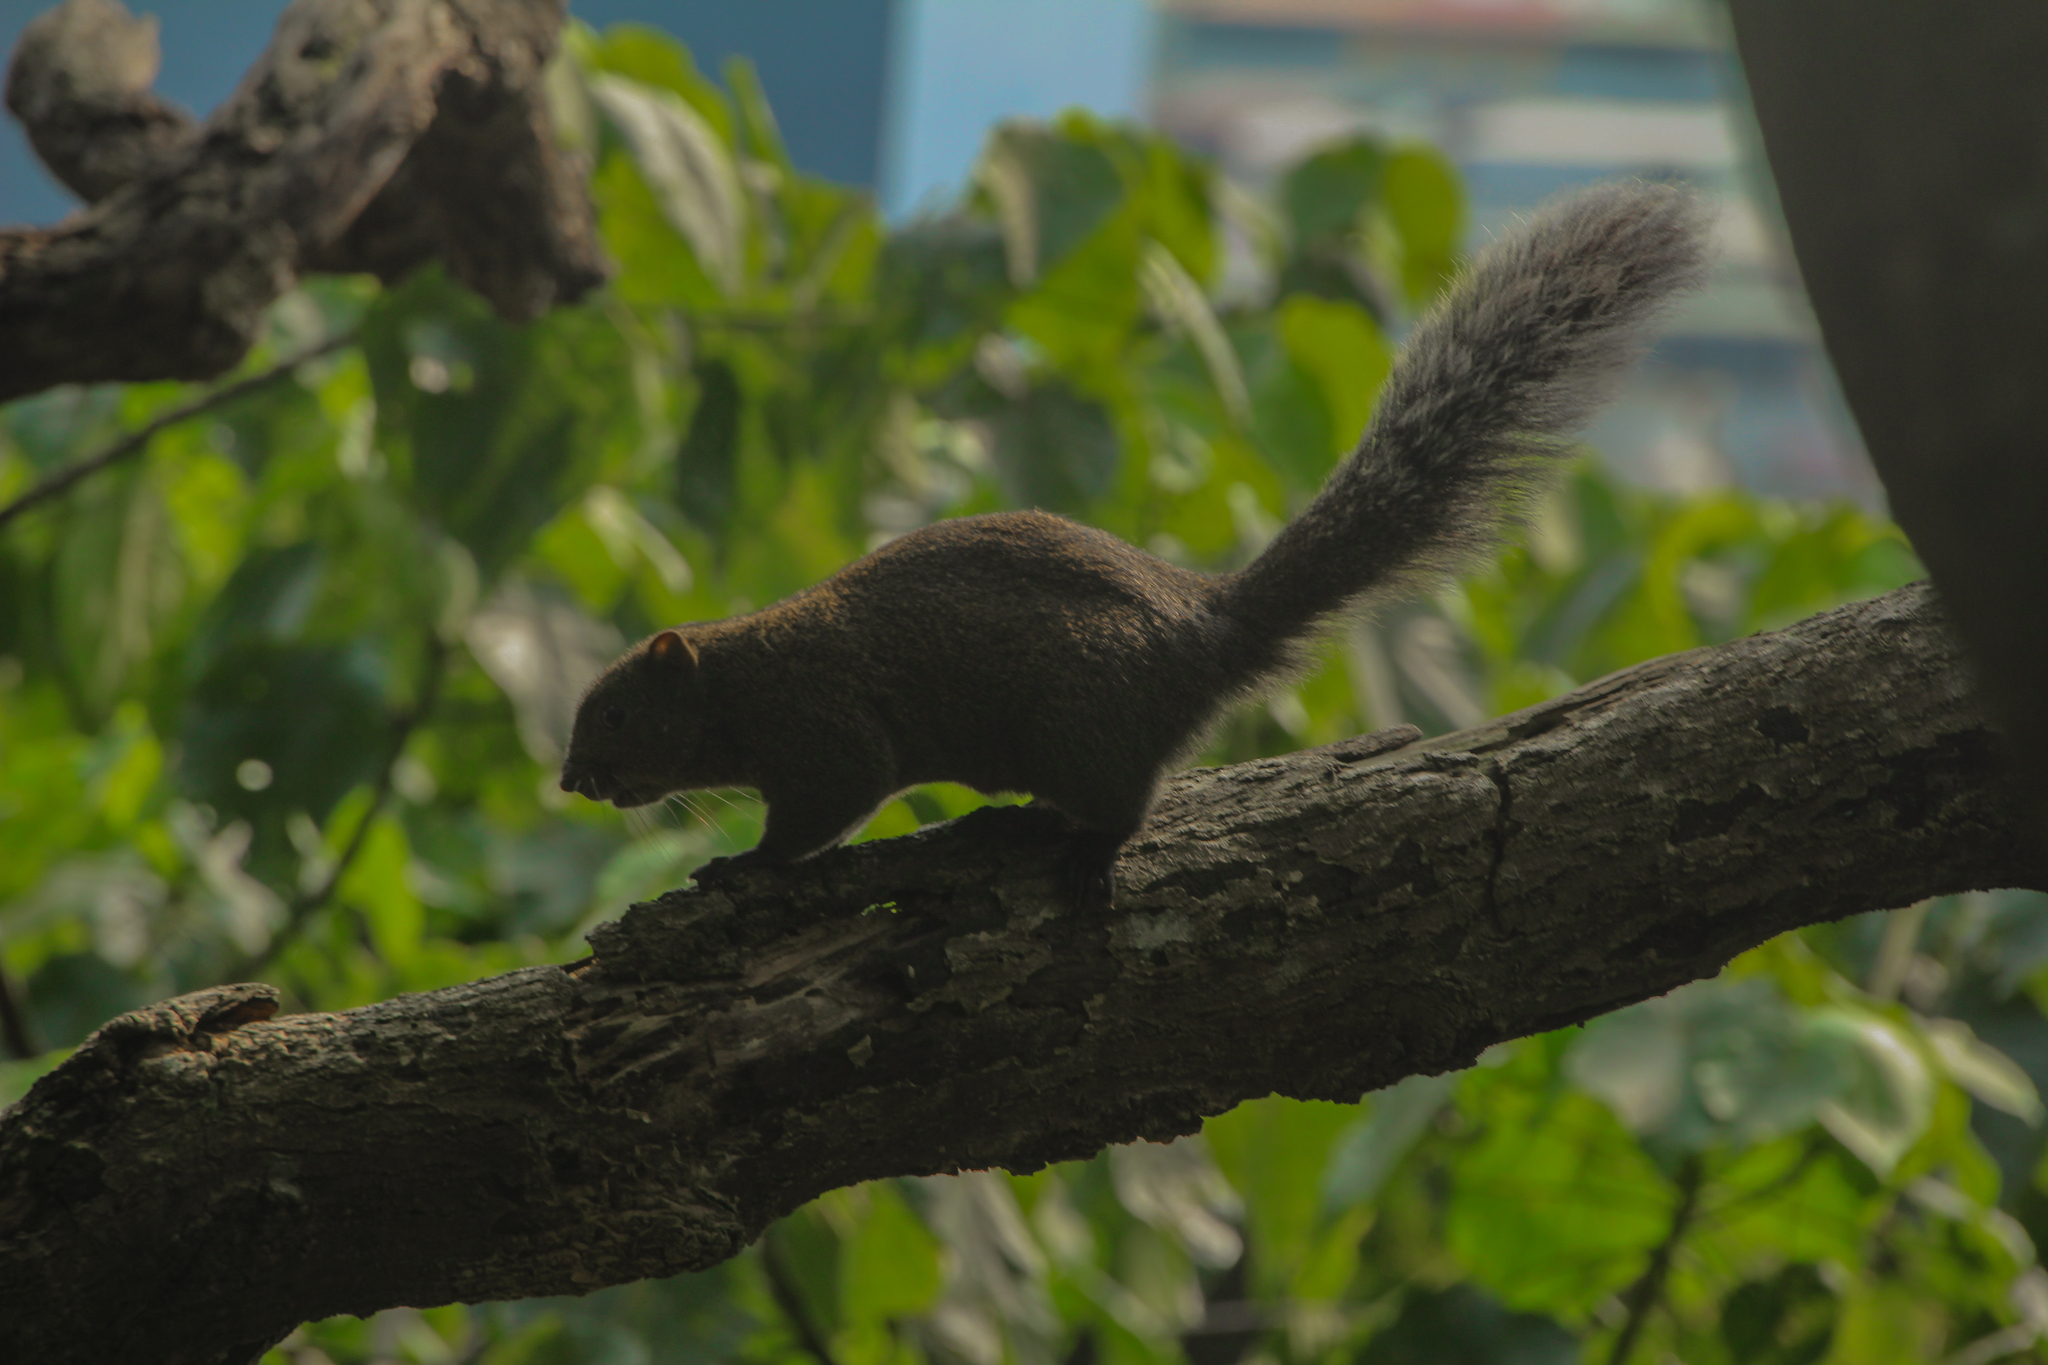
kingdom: Animalia
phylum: Chordata
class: Mammalia
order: Rodentia
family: Sciuridae
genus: Callosciurus
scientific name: Callosciurus erythraeus
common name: Pallas's squirrel
